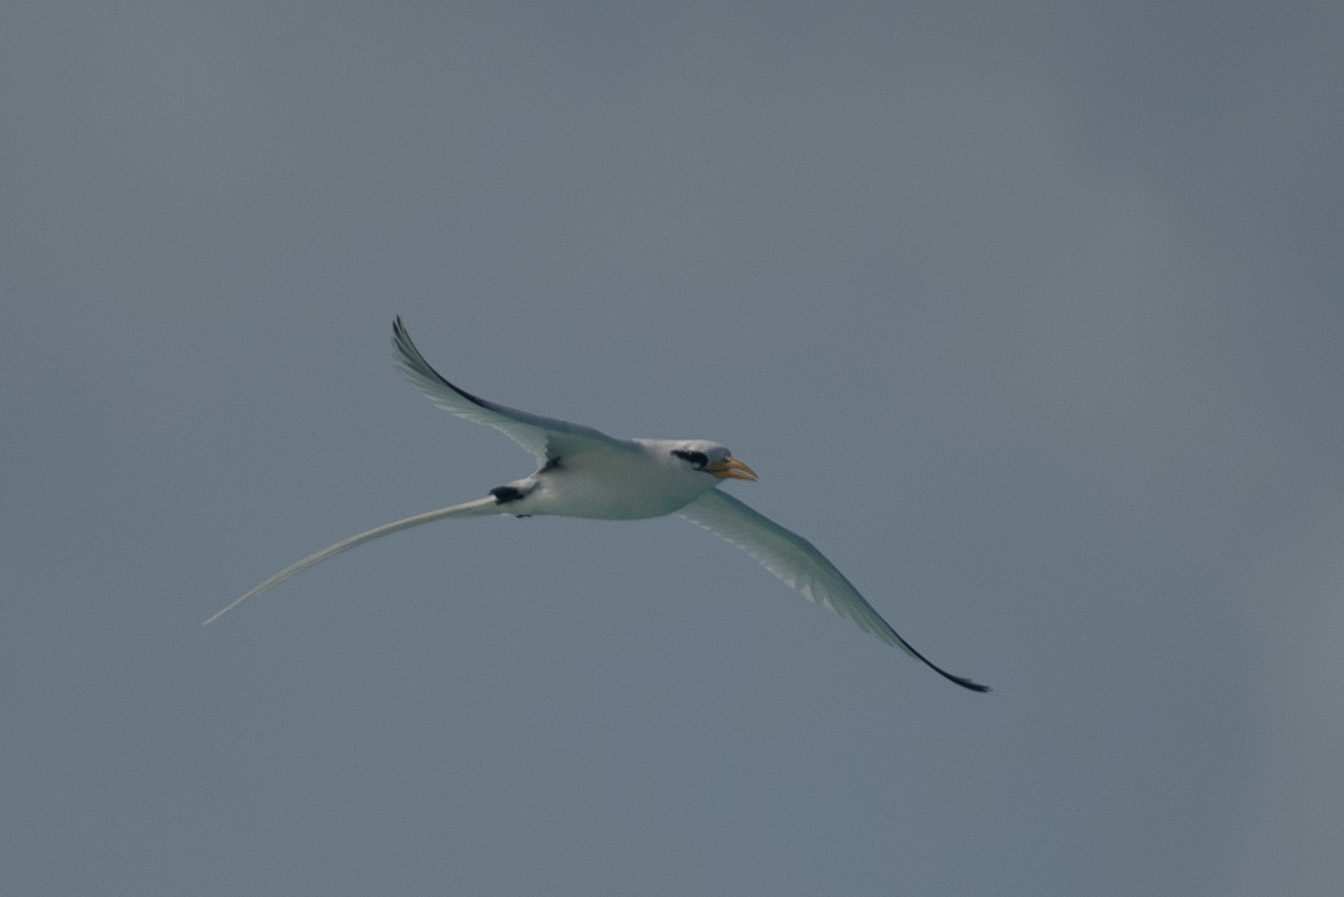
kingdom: Animalia
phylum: Chordata
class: Aves
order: Phaethontiformes
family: Phaethontidae
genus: Phaethon
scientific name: Phaethon lepturus
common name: White-tailed tropicbird
